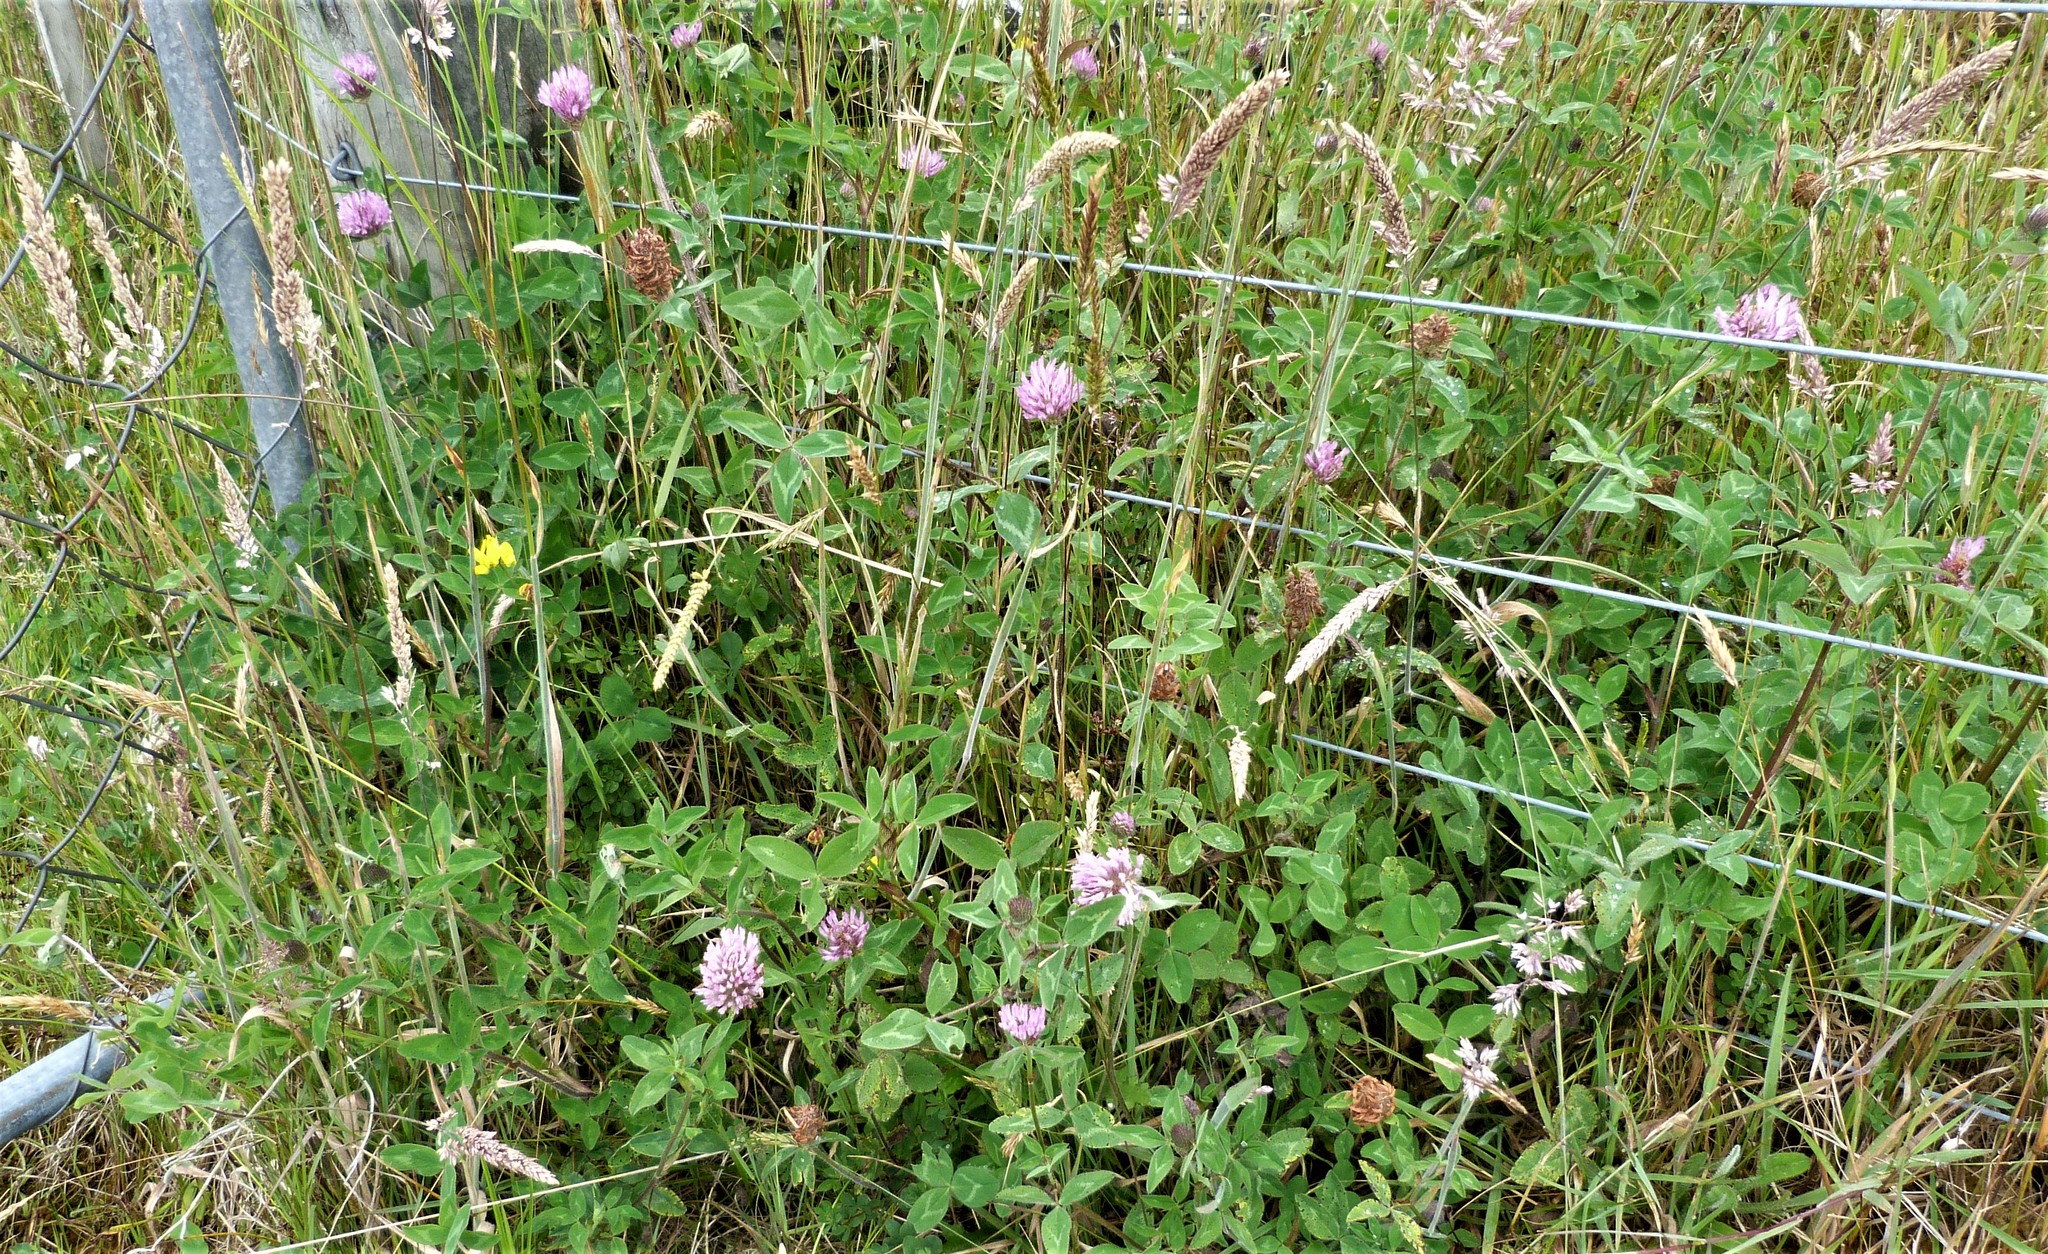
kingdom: Plantae
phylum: Tracheophyta
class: Magnoliopsida
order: Fabales
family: Fabaceae
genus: Trifolium
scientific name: Trifolium pratense
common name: Red clover
